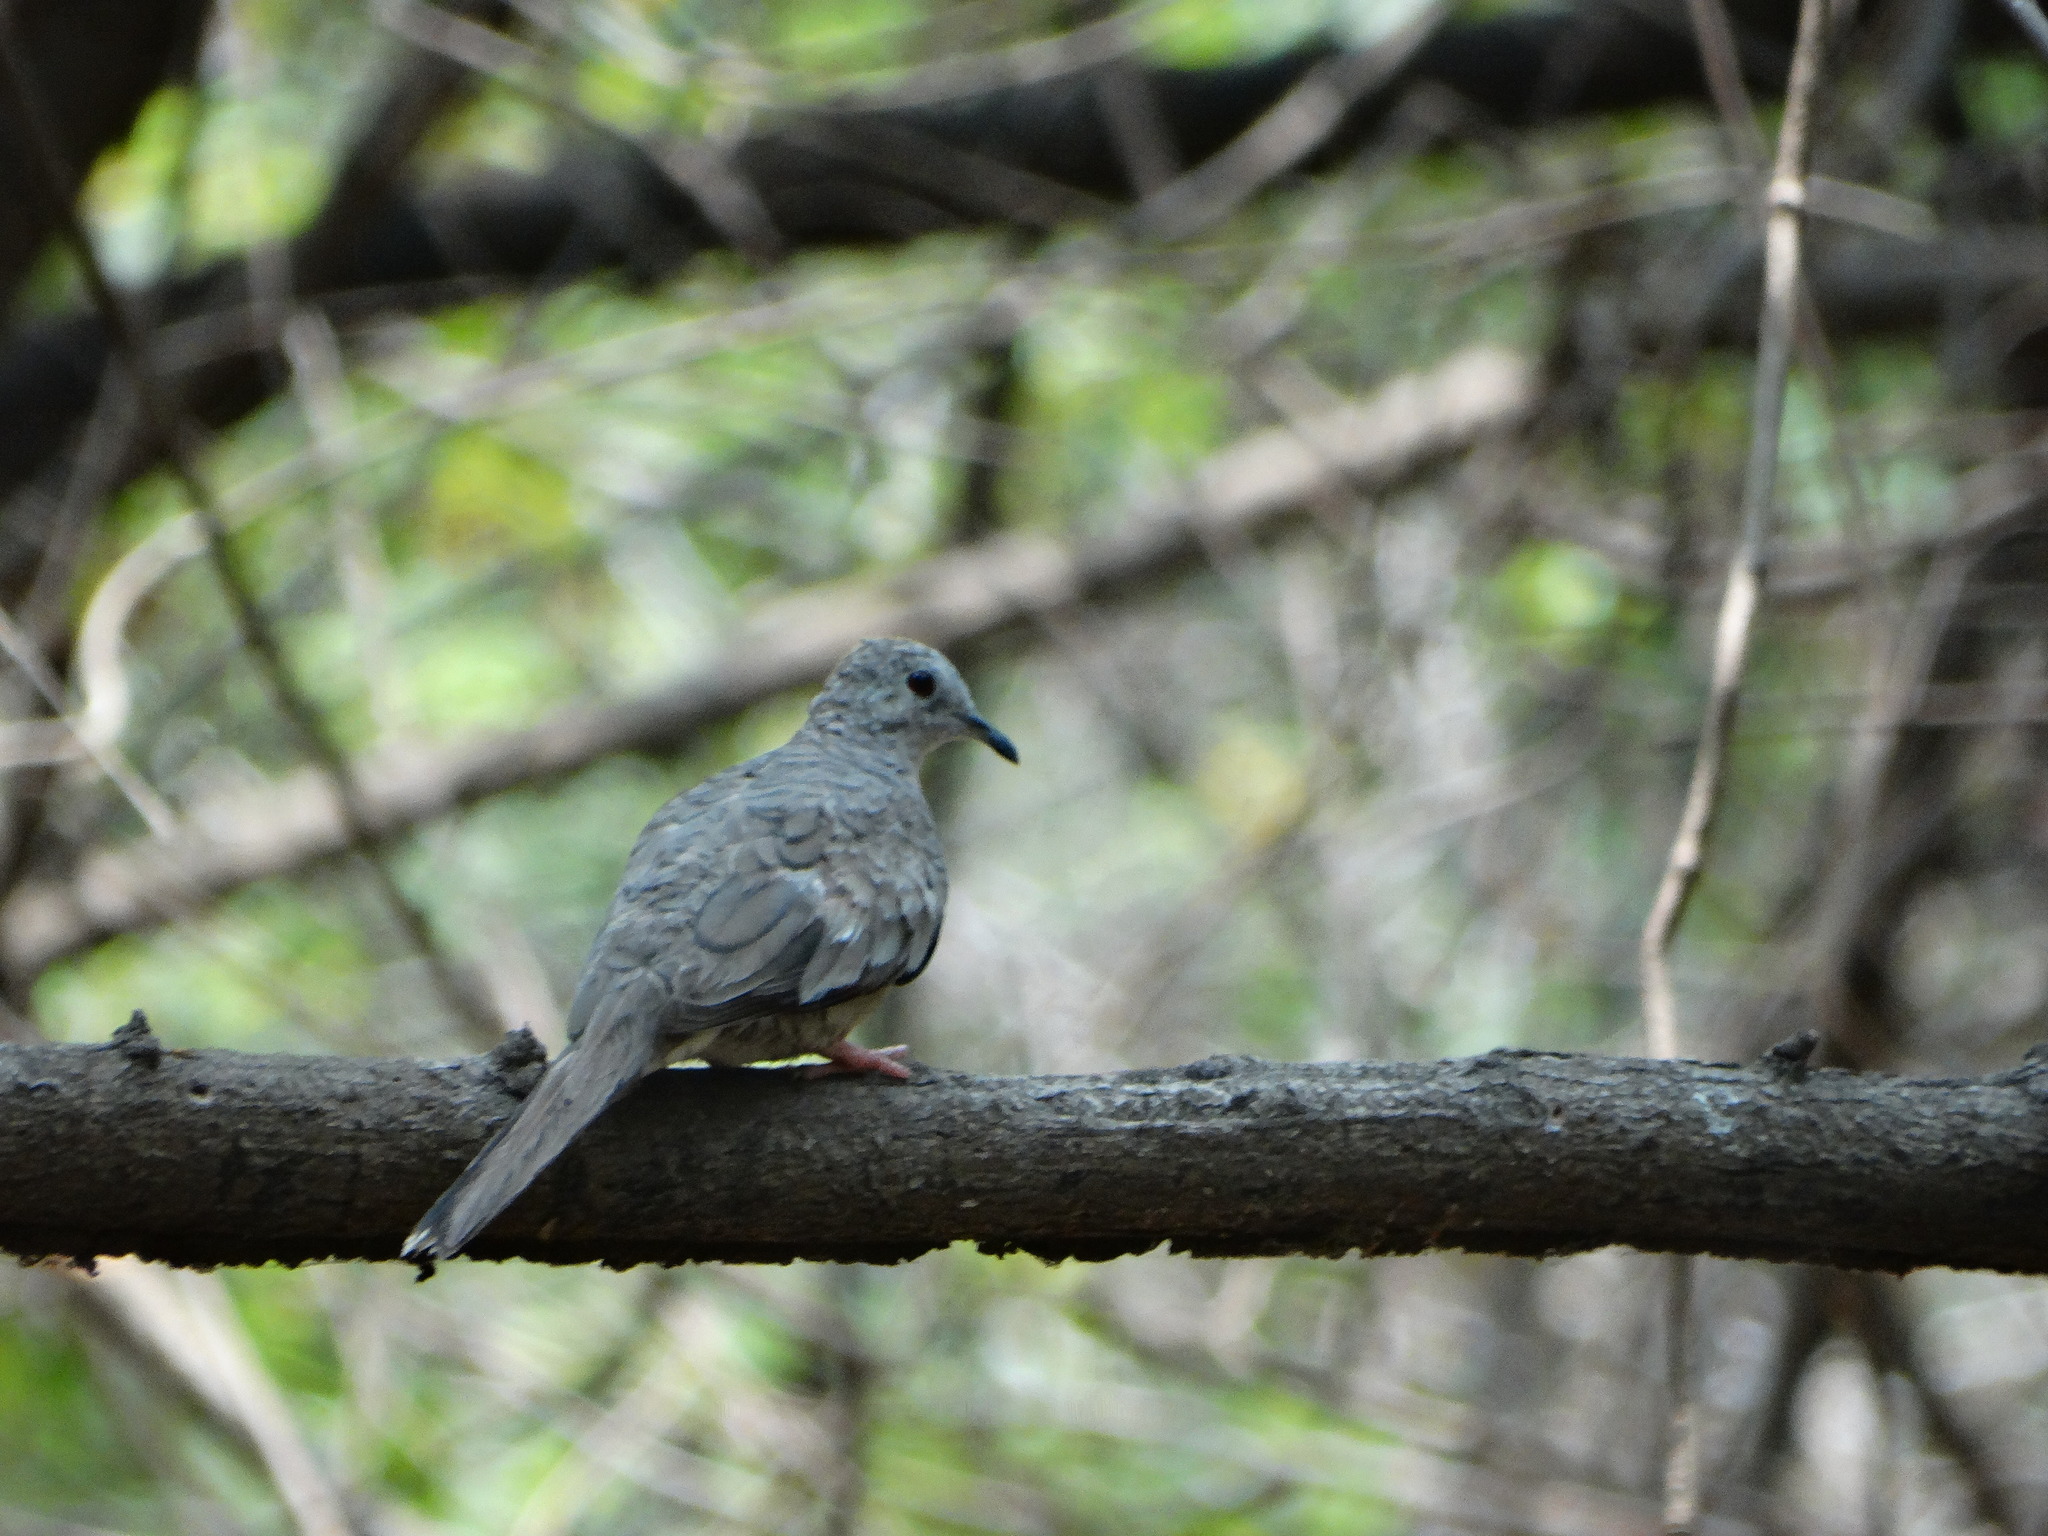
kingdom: Animalia
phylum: Chordata
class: Aves
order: Columbiformes
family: Columbidae
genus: Columbina
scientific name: Columbina inca
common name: Inca dove
